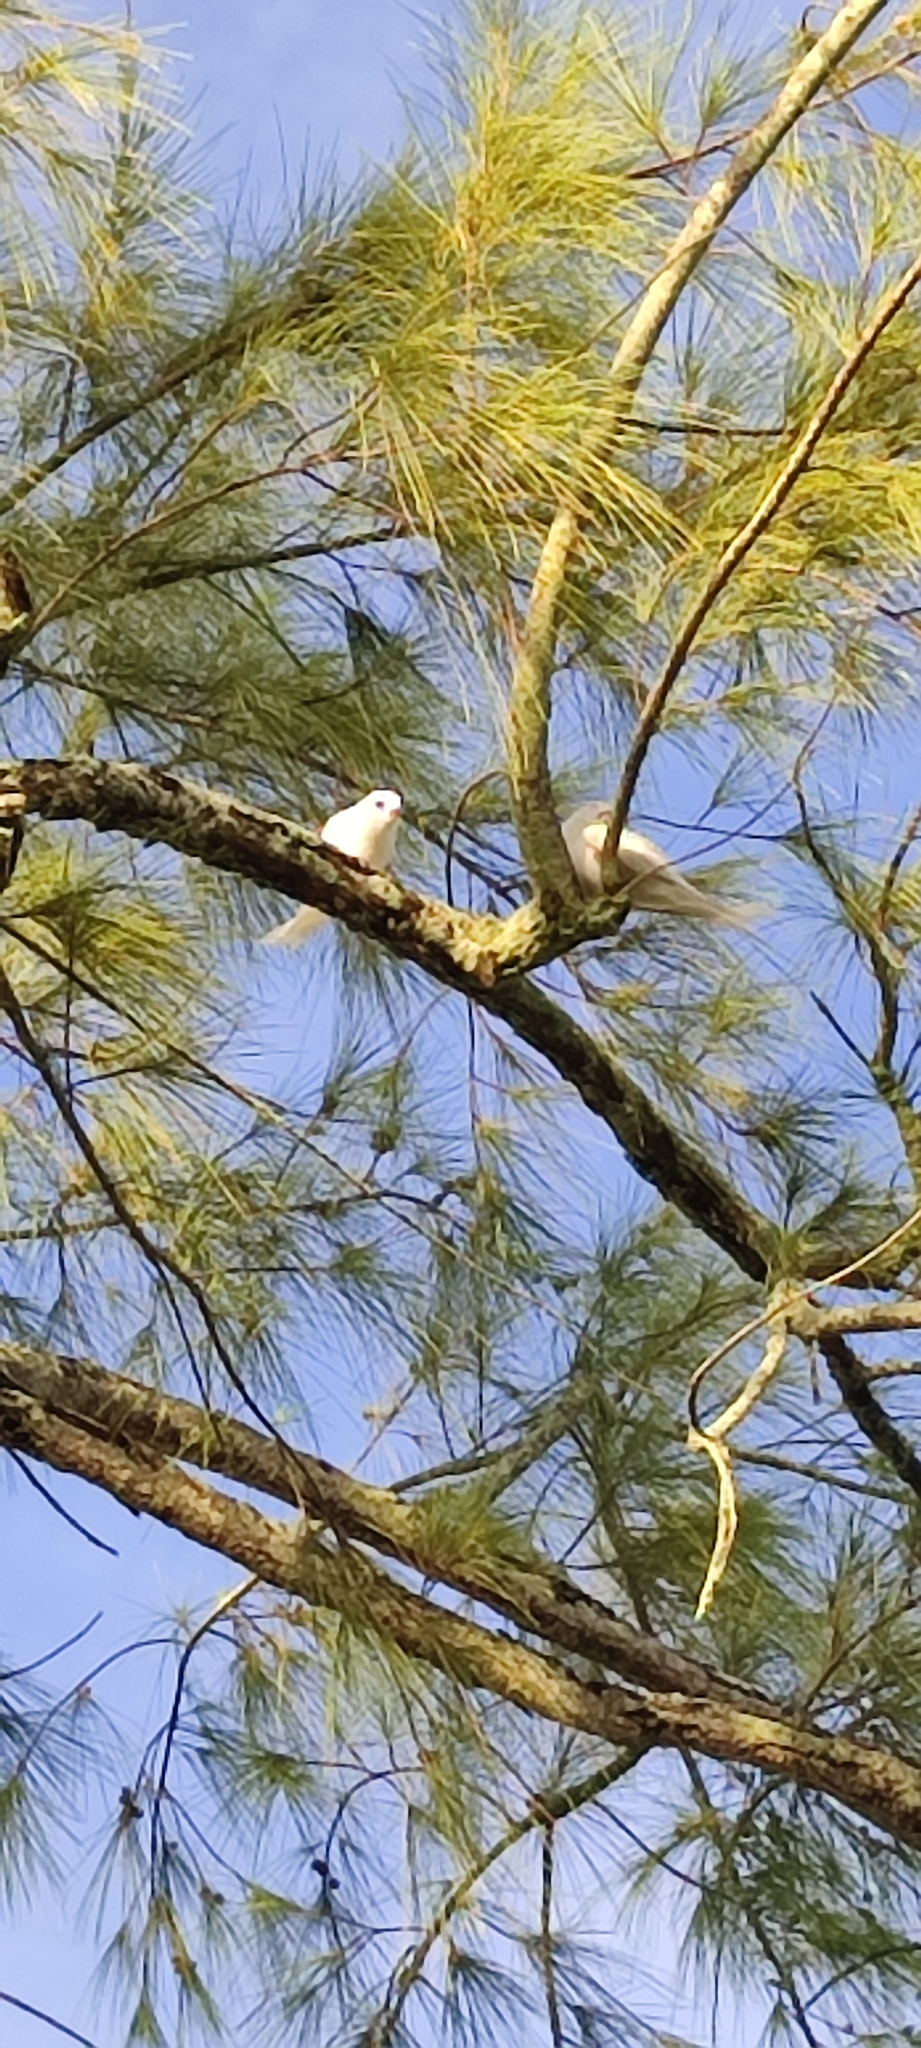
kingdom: Animalia
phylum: Chordata
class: Aves
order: Charadriiformes
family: Laridae
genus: Gygis
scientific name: Gygis alba
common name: White tern
